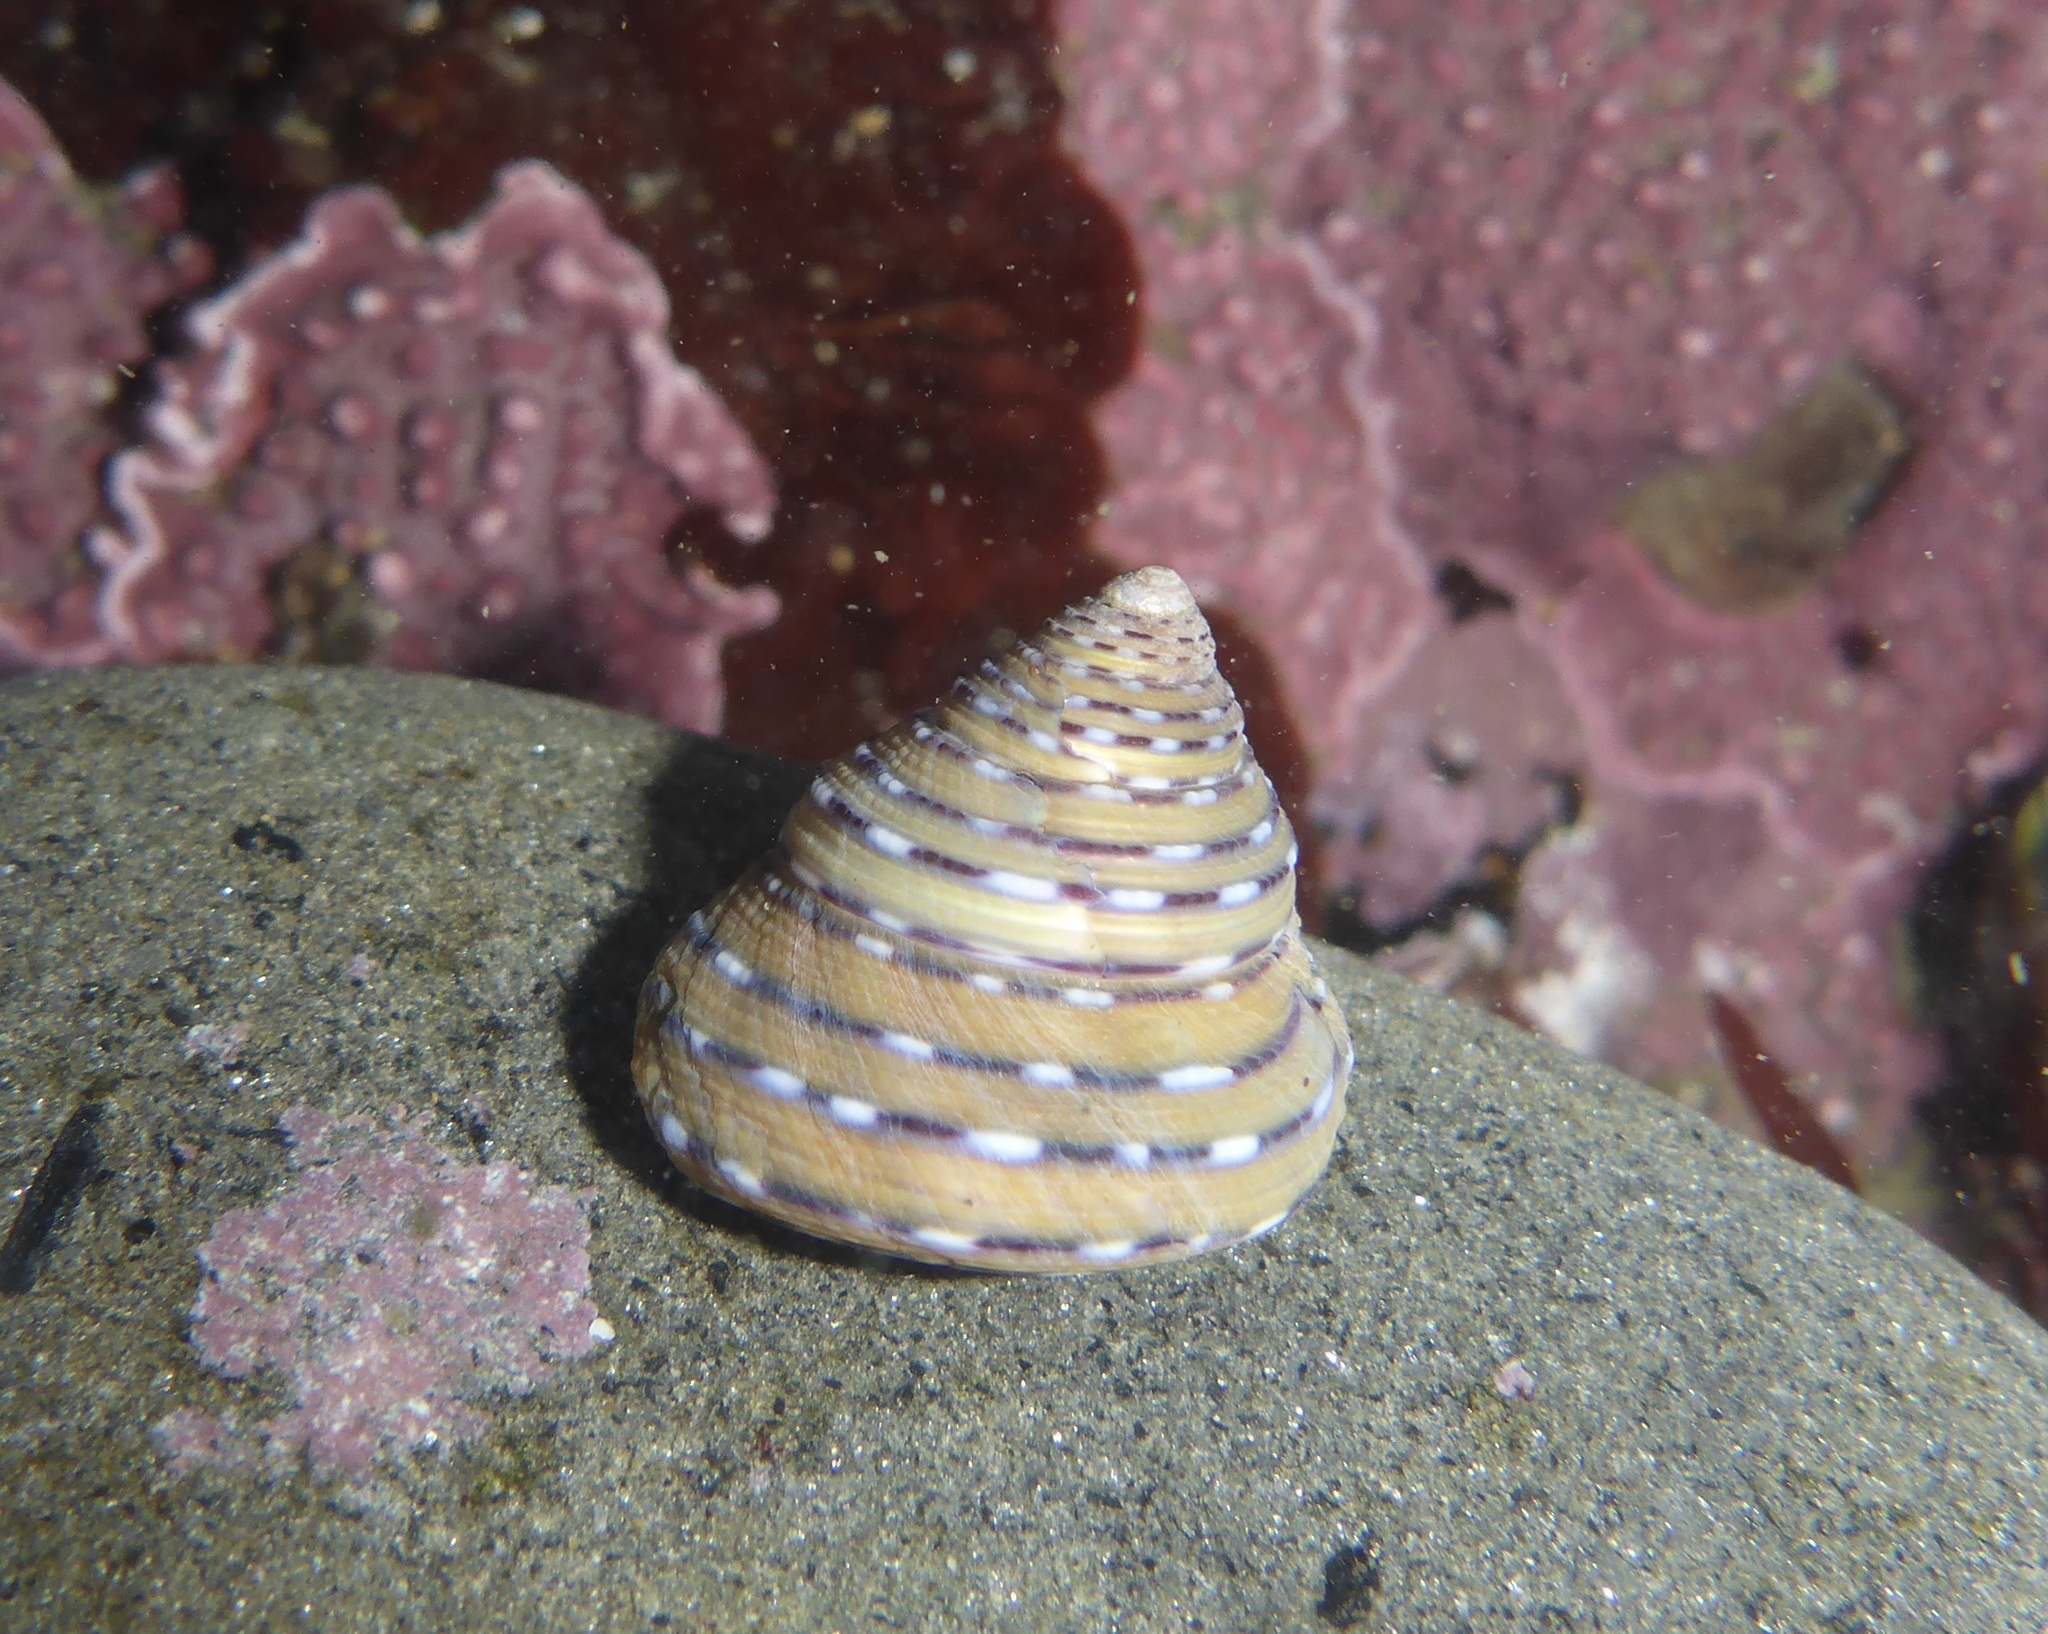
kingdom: Animalia
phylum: Mollusca
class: Gastropoda
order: Trochida
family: Calliostomatidae
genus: Calliostoma
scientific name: Calliostoma tricolor
